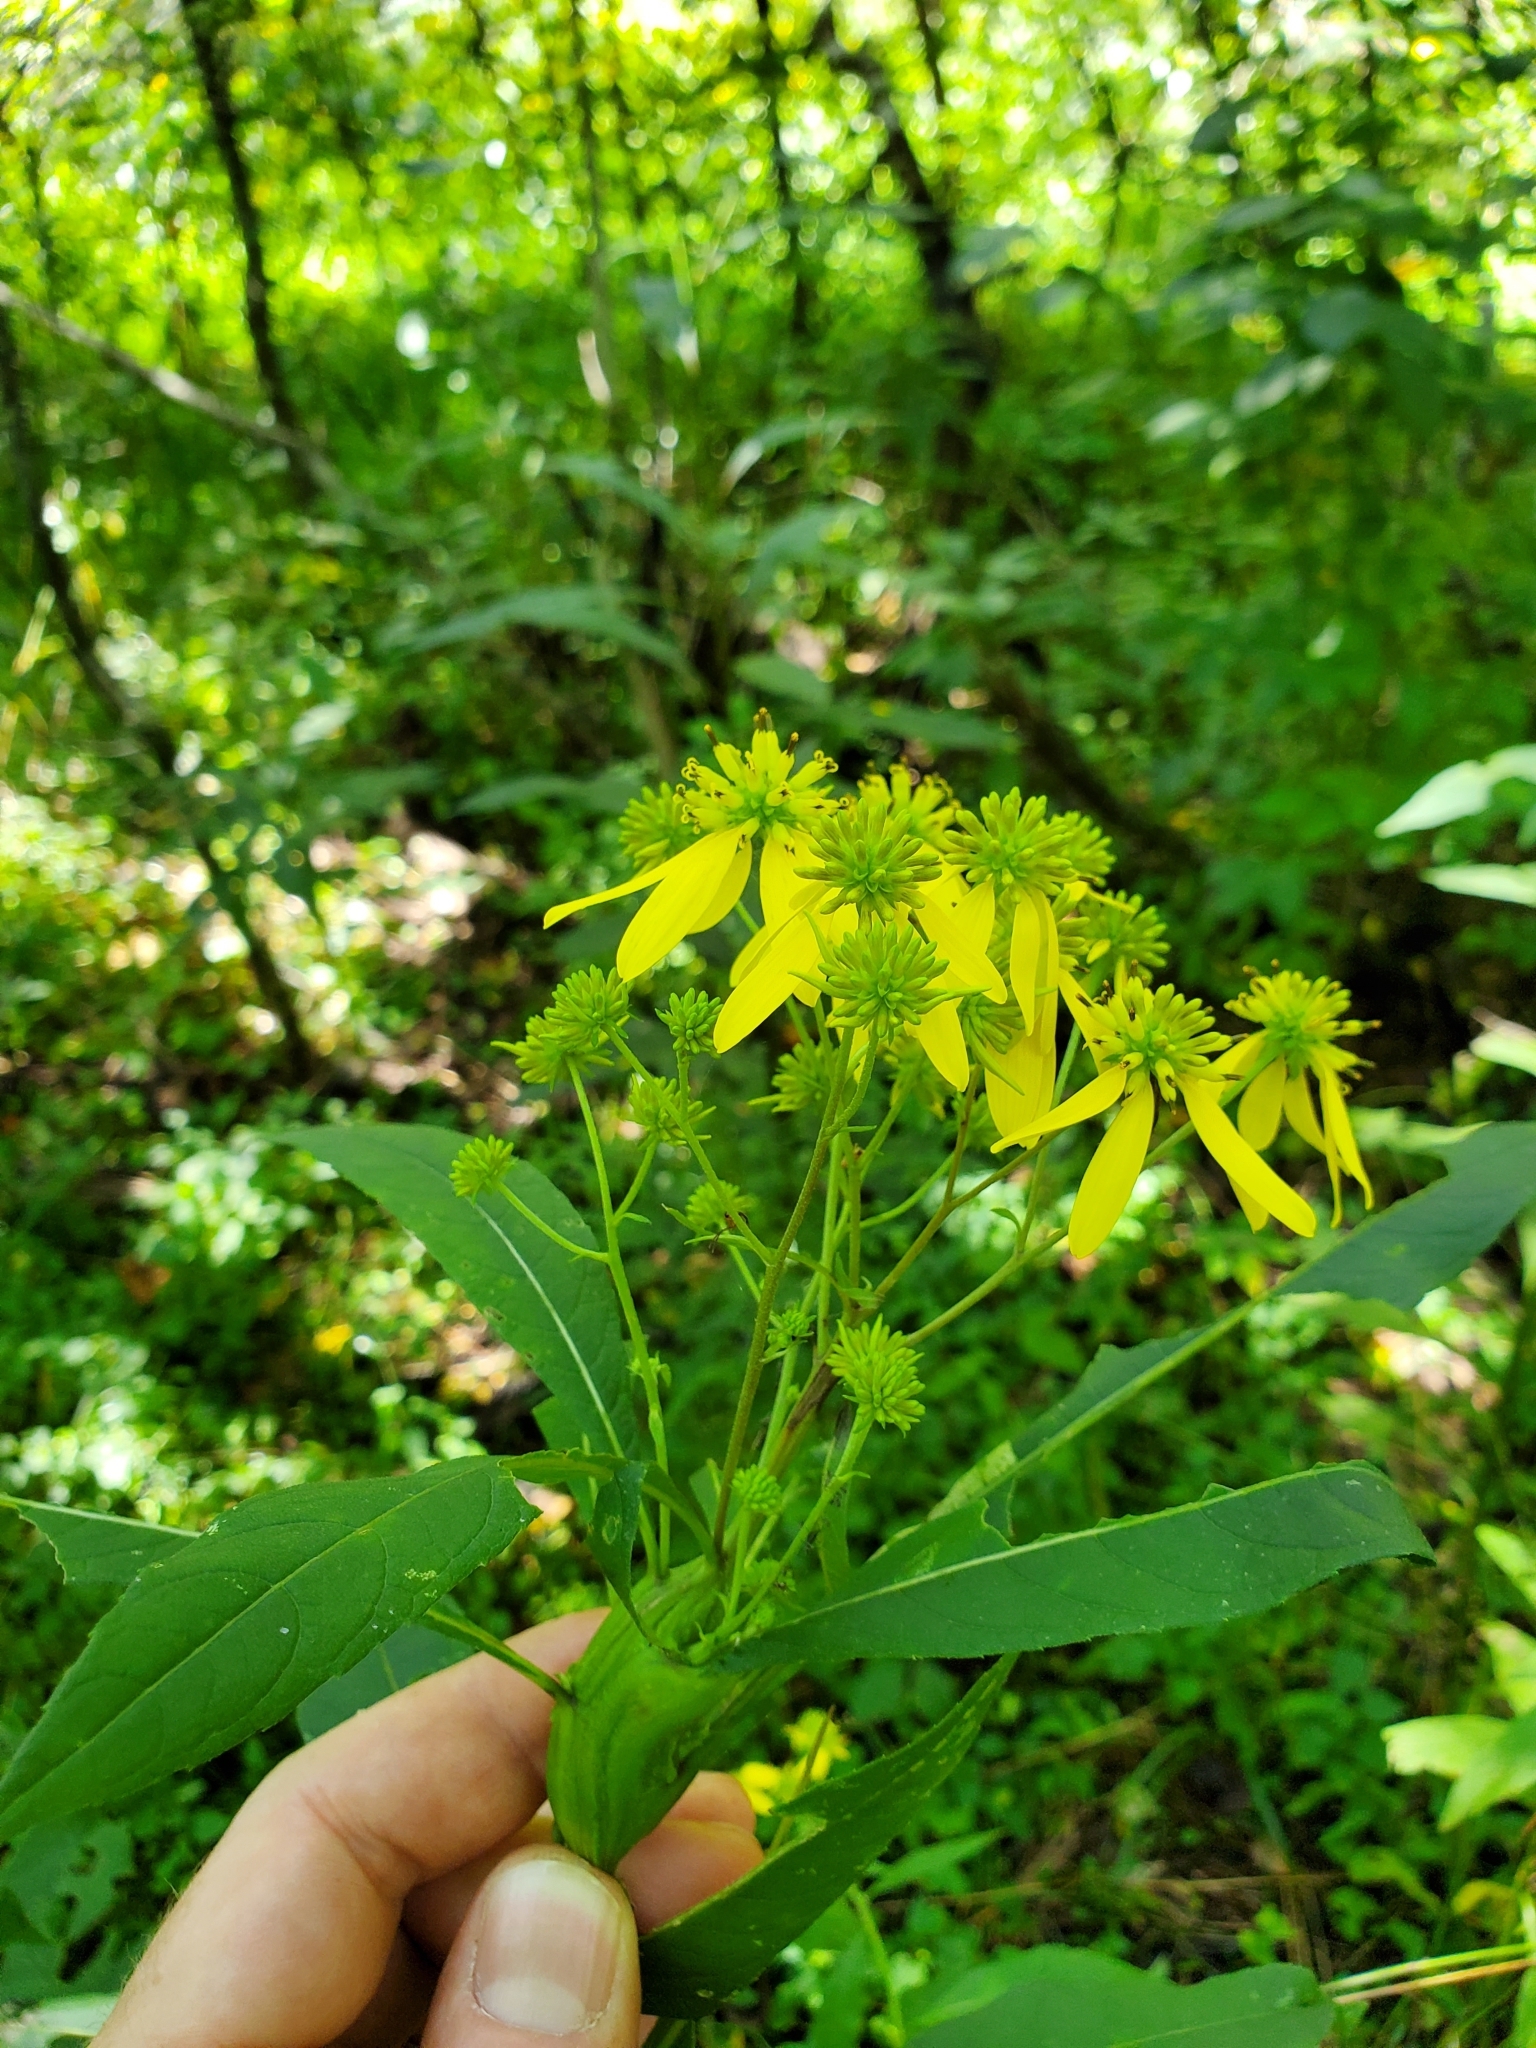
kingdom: Animalia
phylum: Arthropoda
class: Insecta
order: Diptera
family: Cecidomyiidae
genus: Neolasioptera
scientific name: Neolasioptera verbesinae
